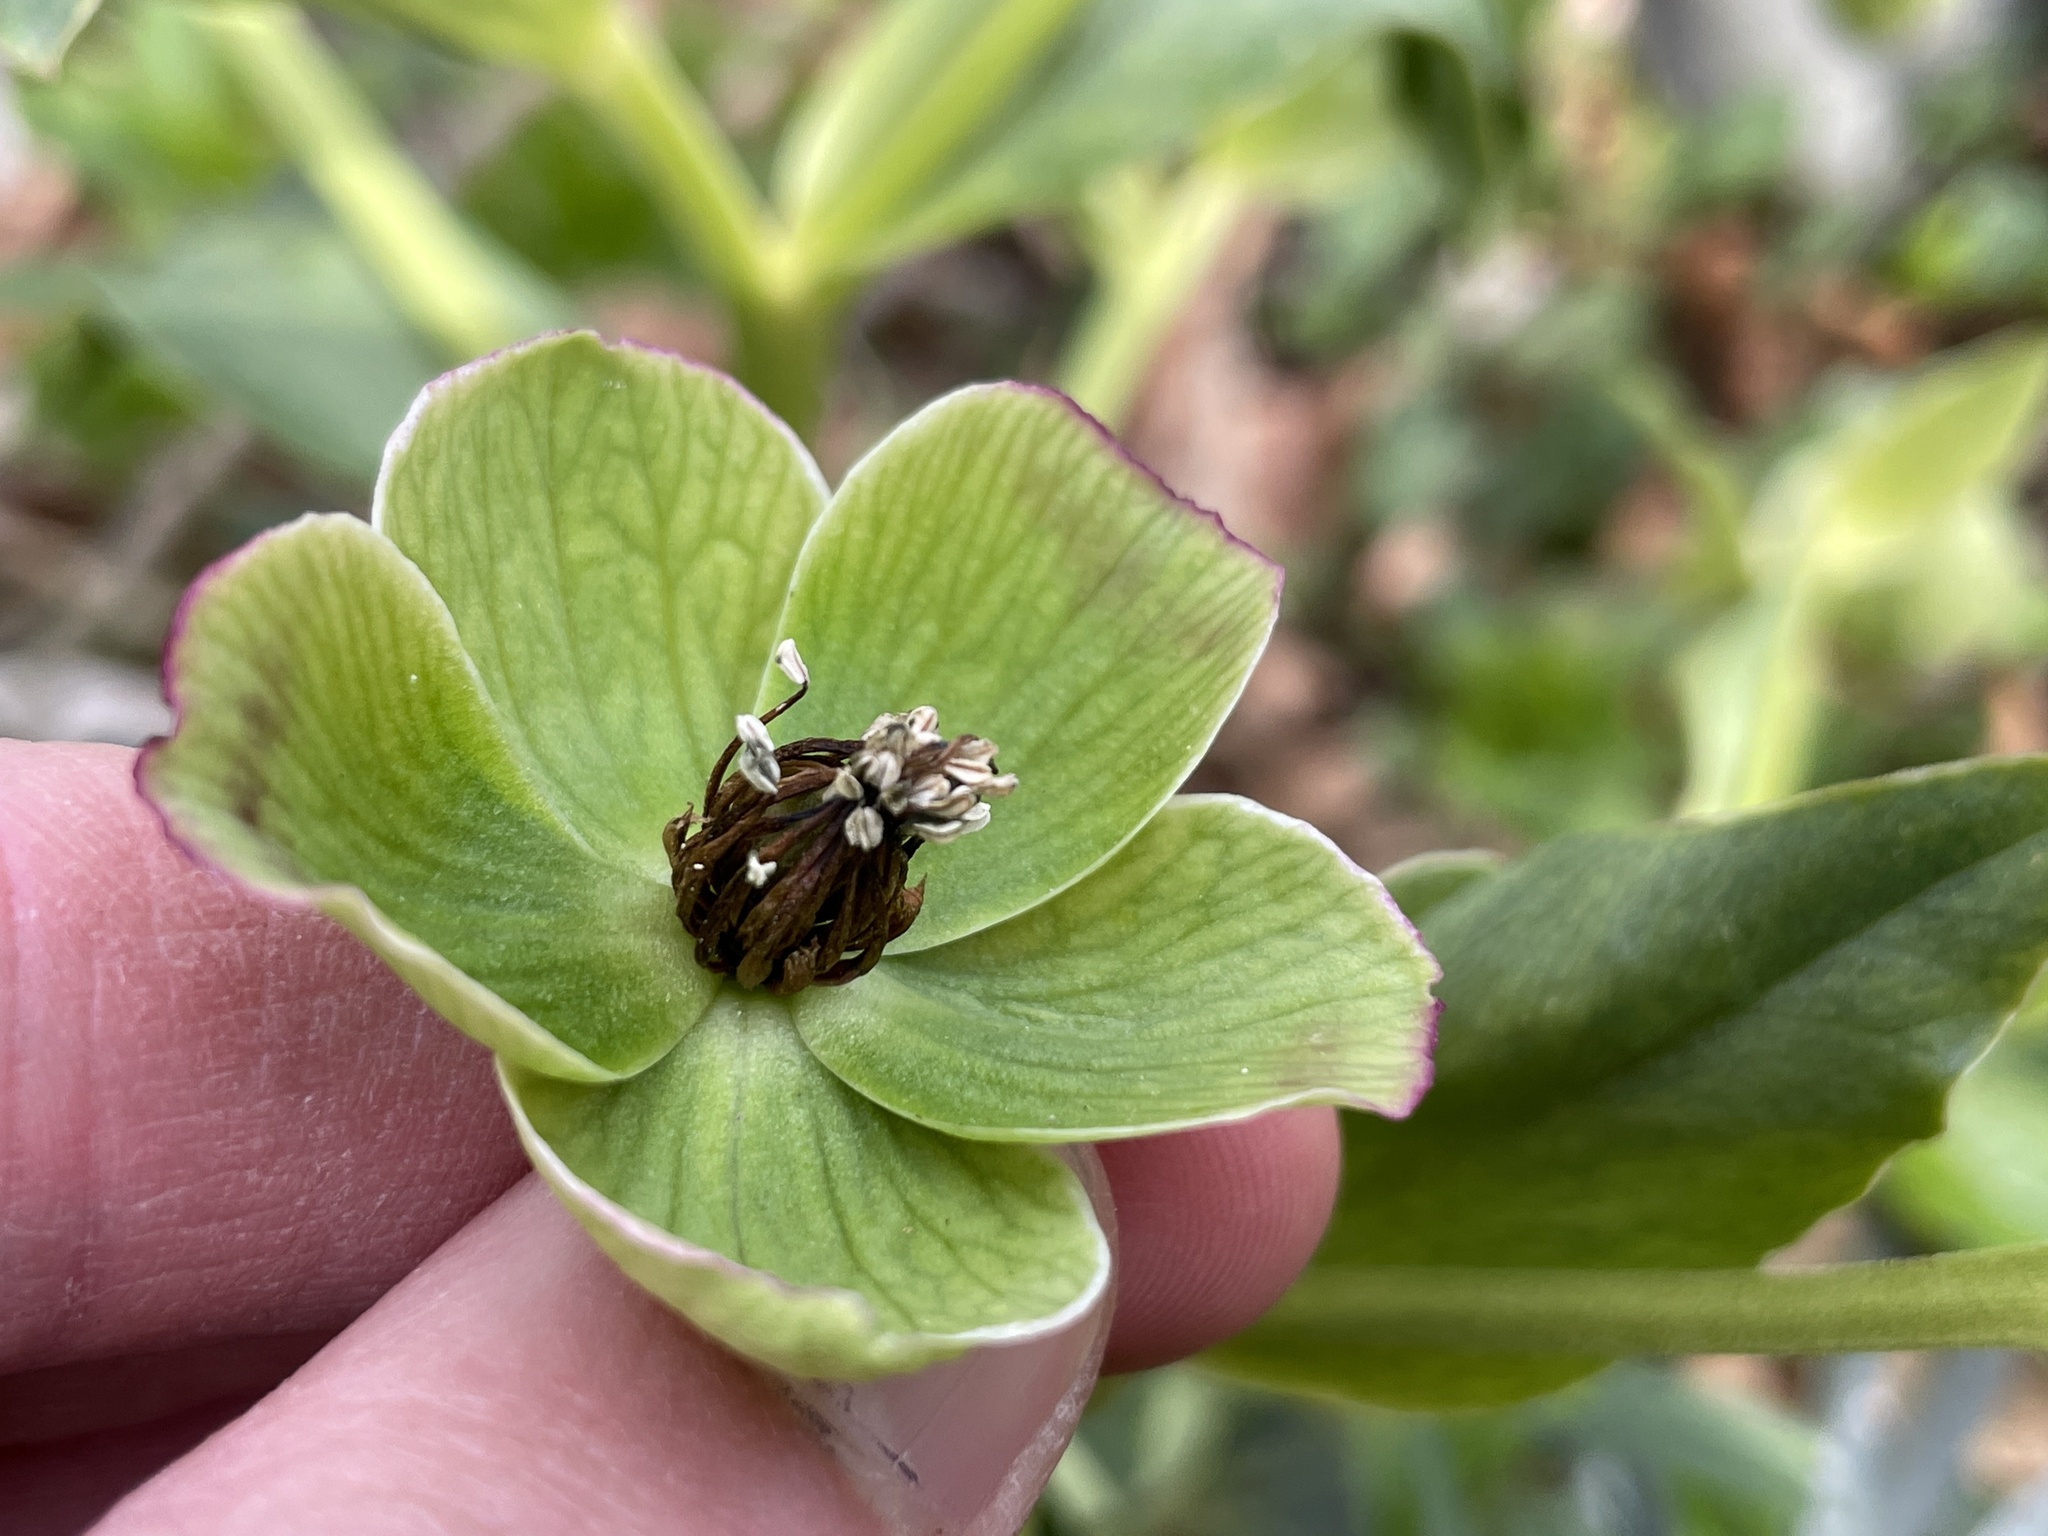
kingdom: Plantae
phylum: Tracheophyta
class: Magnoliopsida
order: Ranunculales
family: Ranunculaceae
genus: Helleborus
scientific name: Helleborus foetidus
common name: Stinking hellebore
